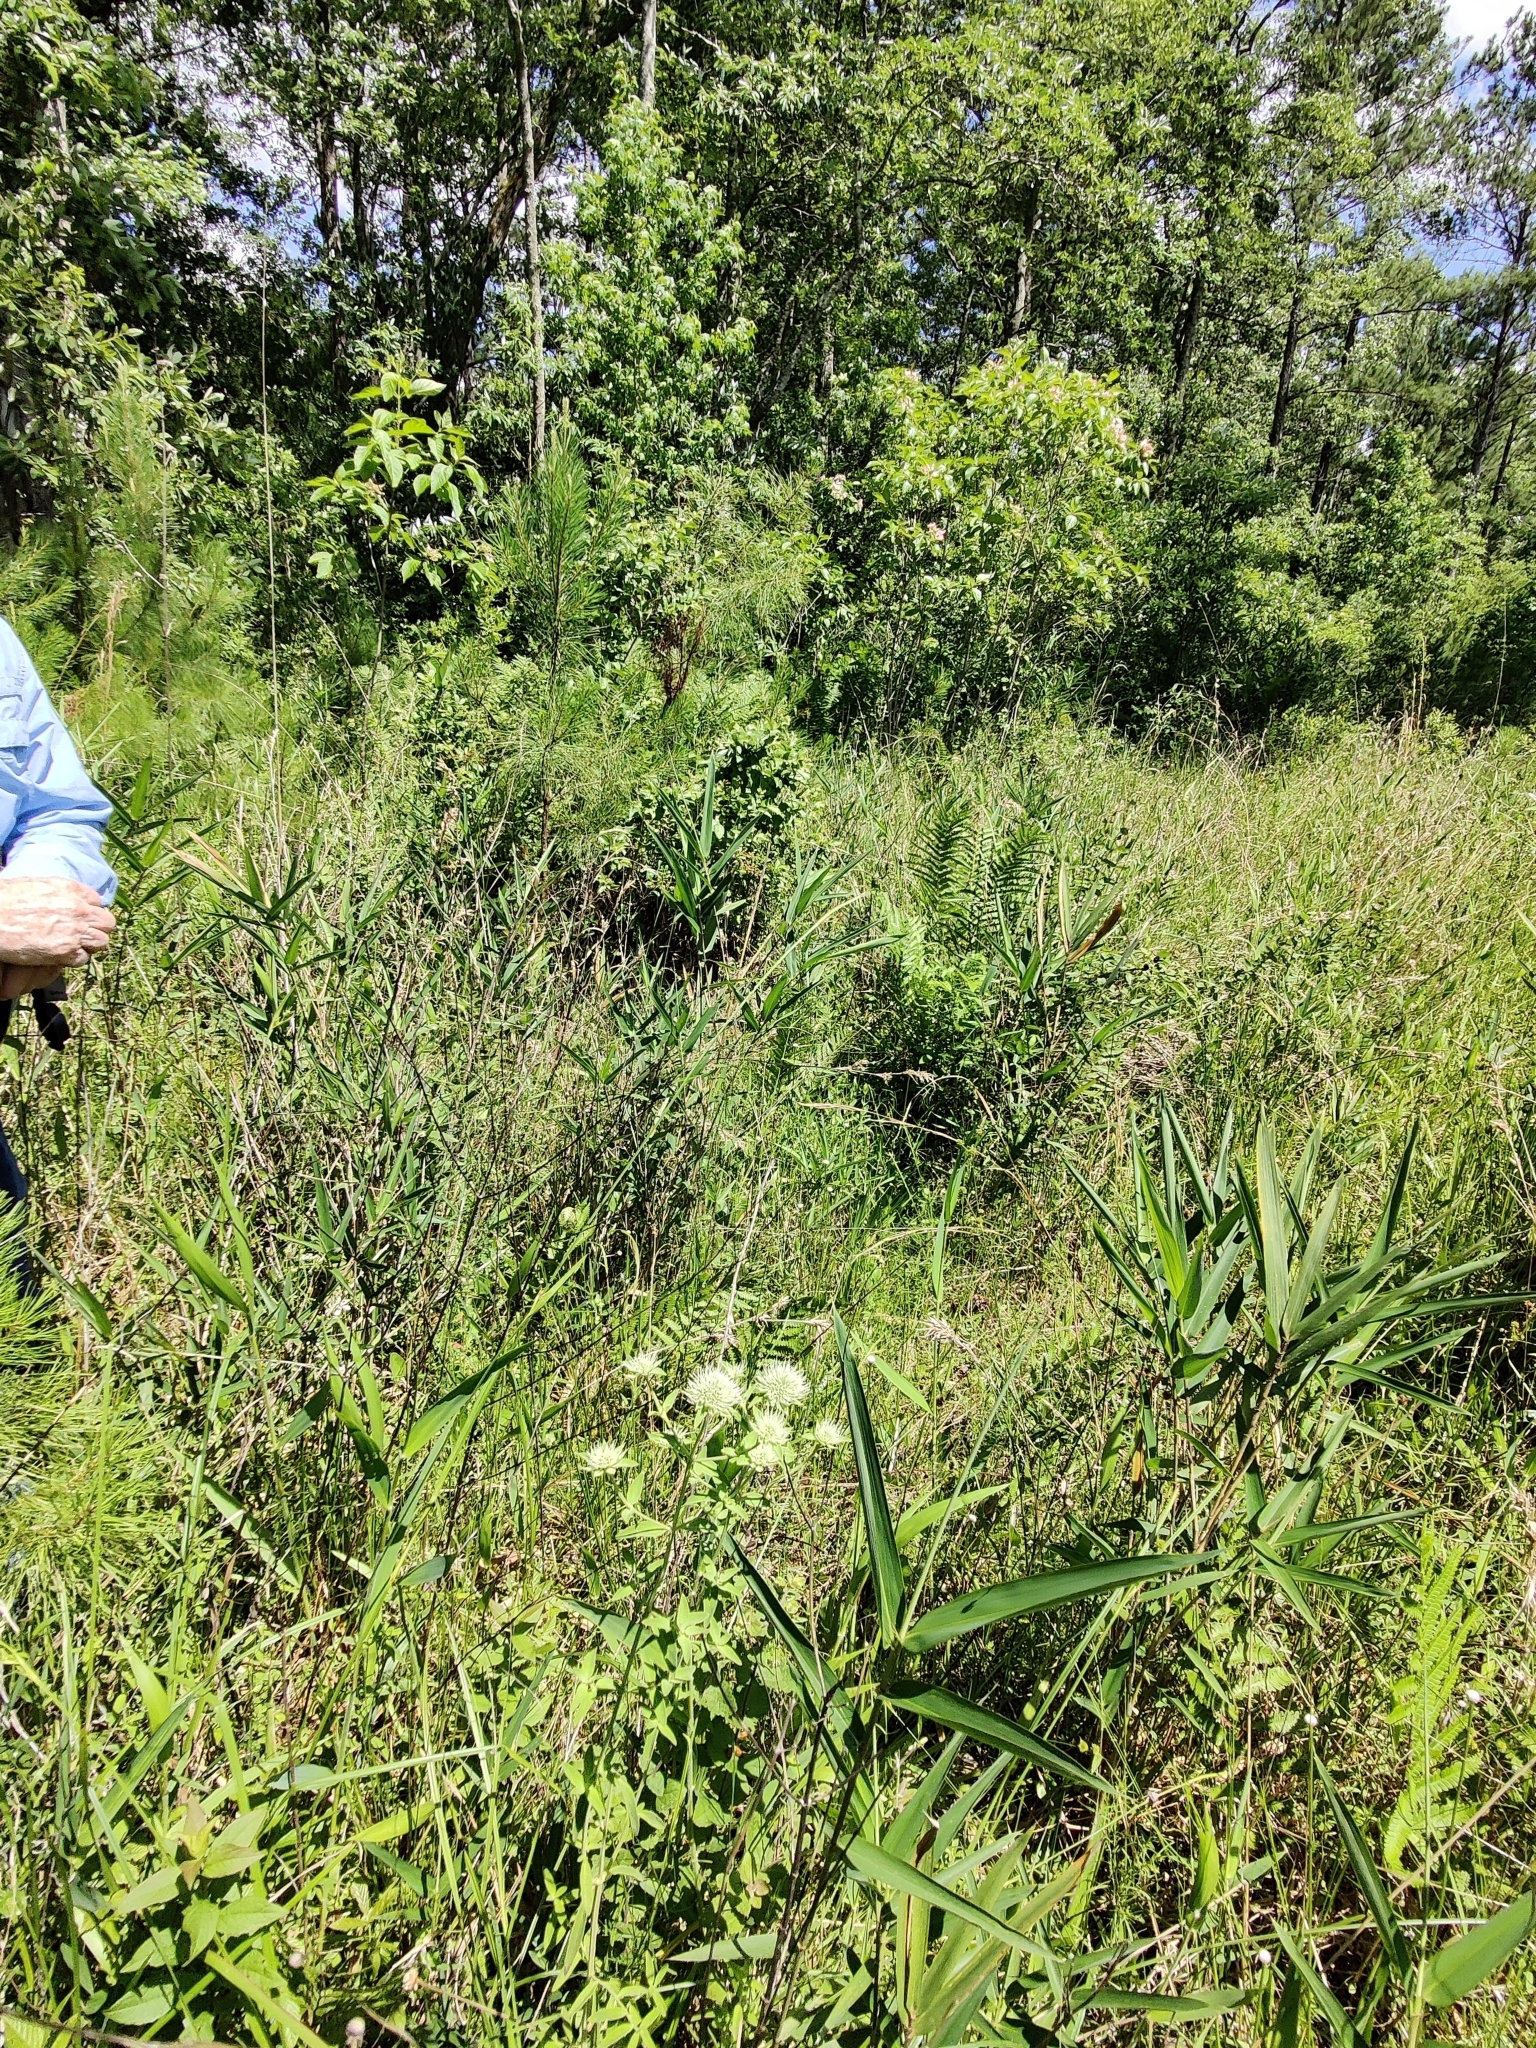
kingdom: Plantae
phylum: Tracheophyta
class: Magnoliopsida
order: Lamiales
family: Lamiaceae
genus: Pycnanthemum
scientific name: Pycnanthemum flexuosum
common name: Appalachian mountain-mint
